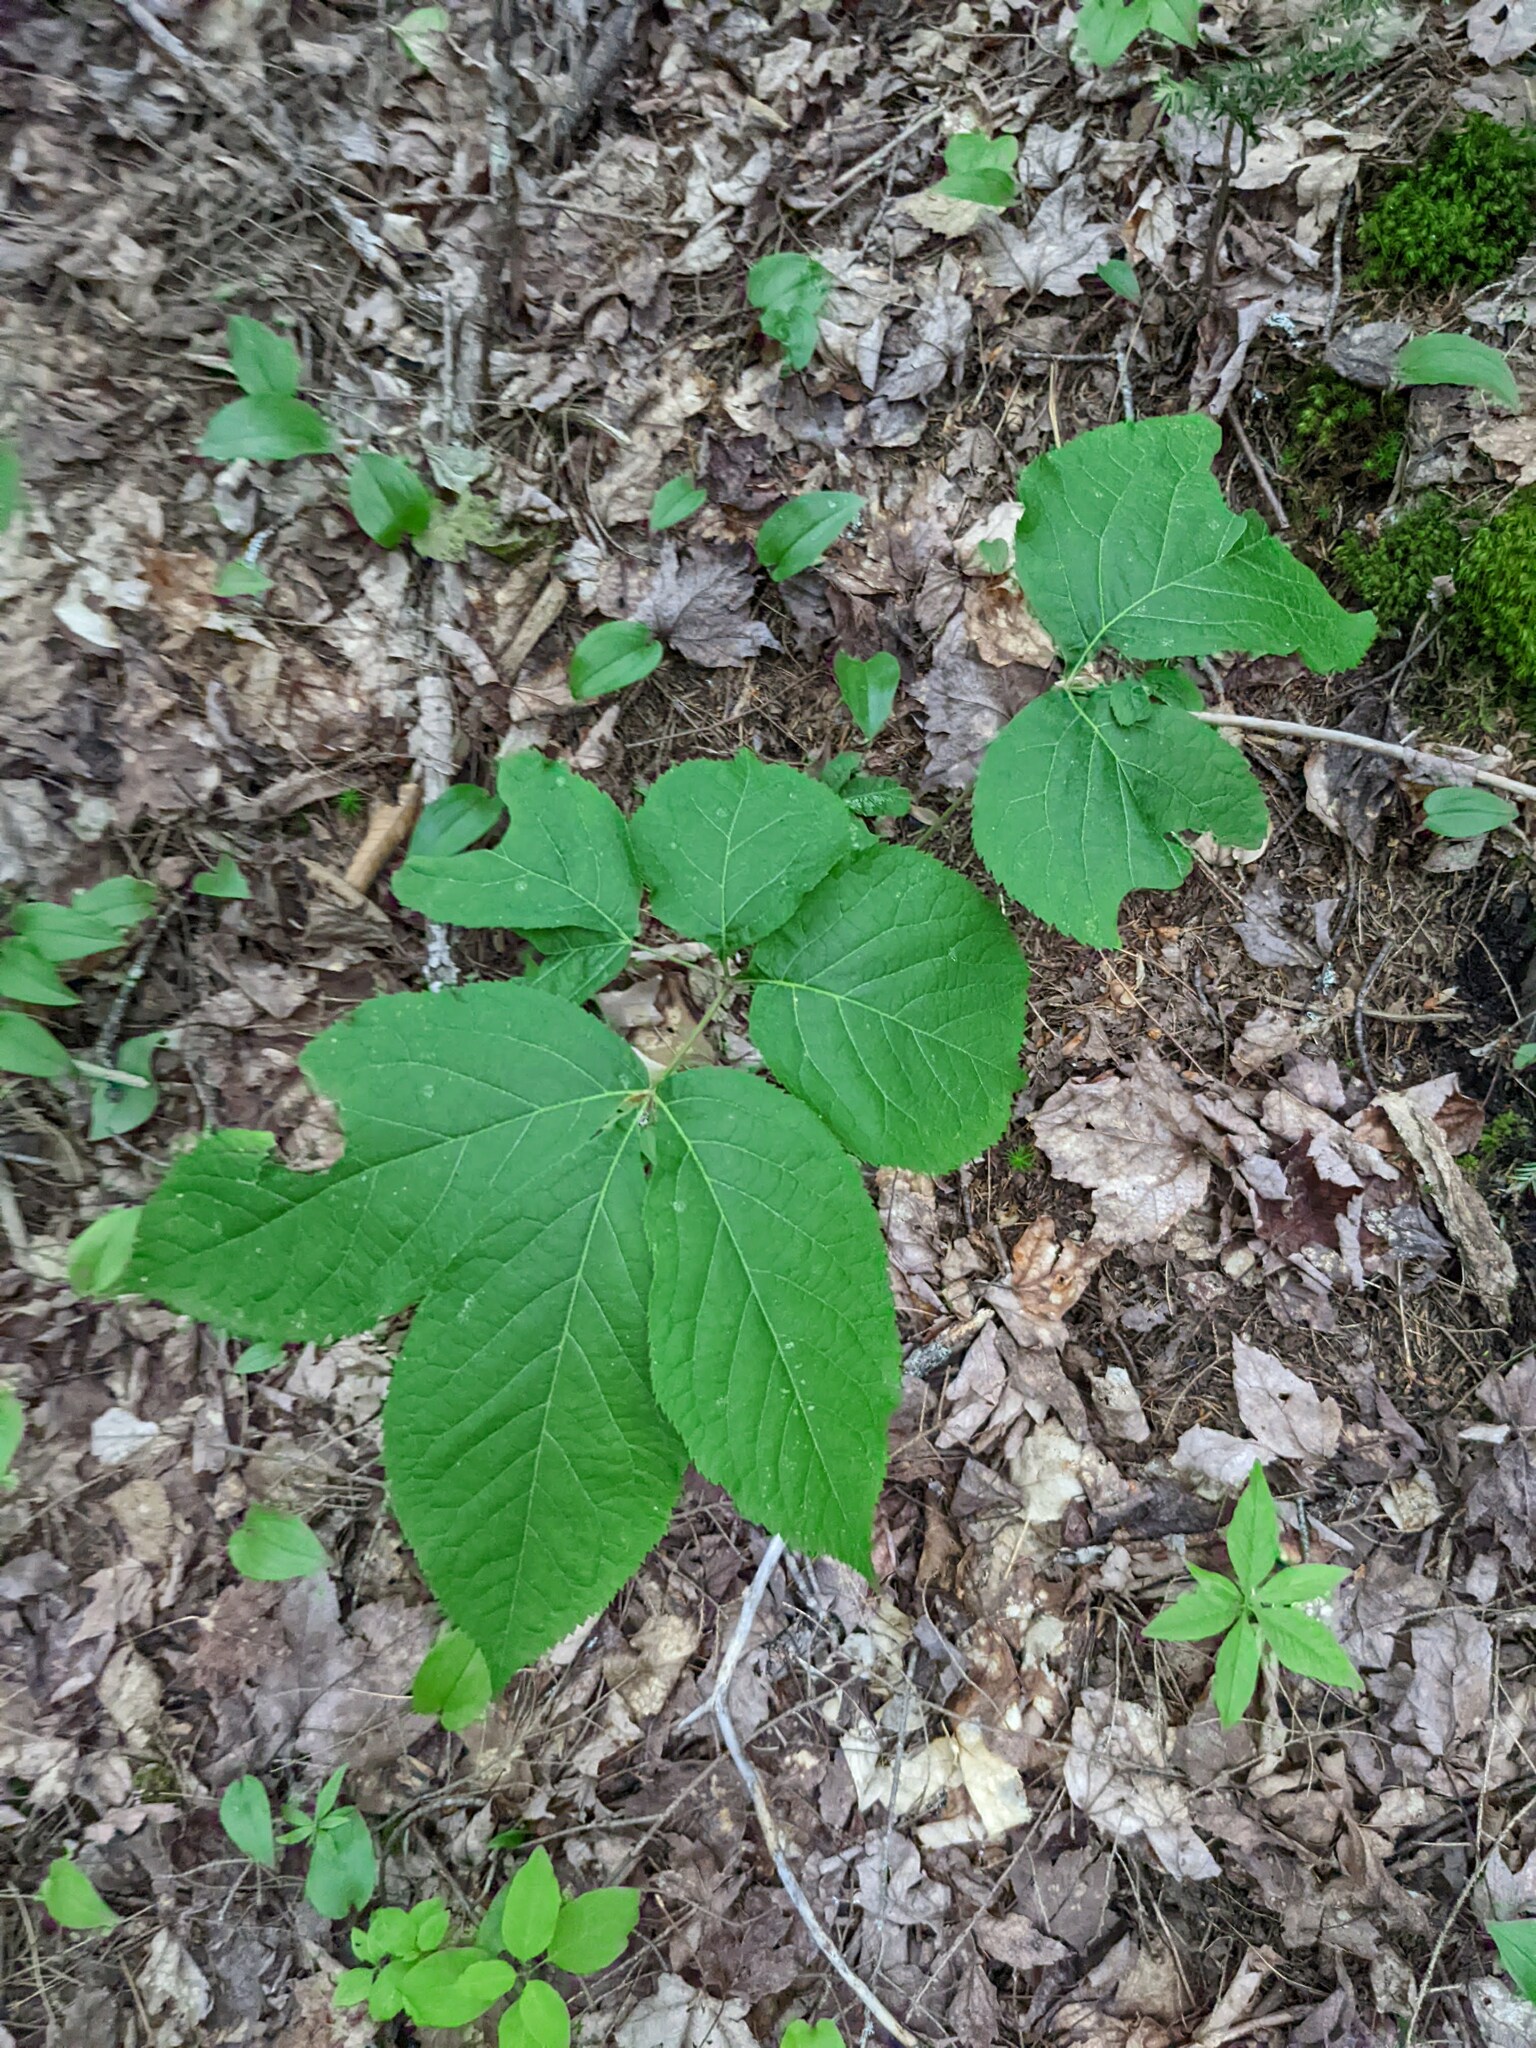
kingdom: Plantae
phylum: Tracheophyta
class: Magnoliopsida
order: Apiales
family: Araliaceae
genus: Aralia
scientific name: Aralia nudicaulis
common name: Wild sarsaparilla
